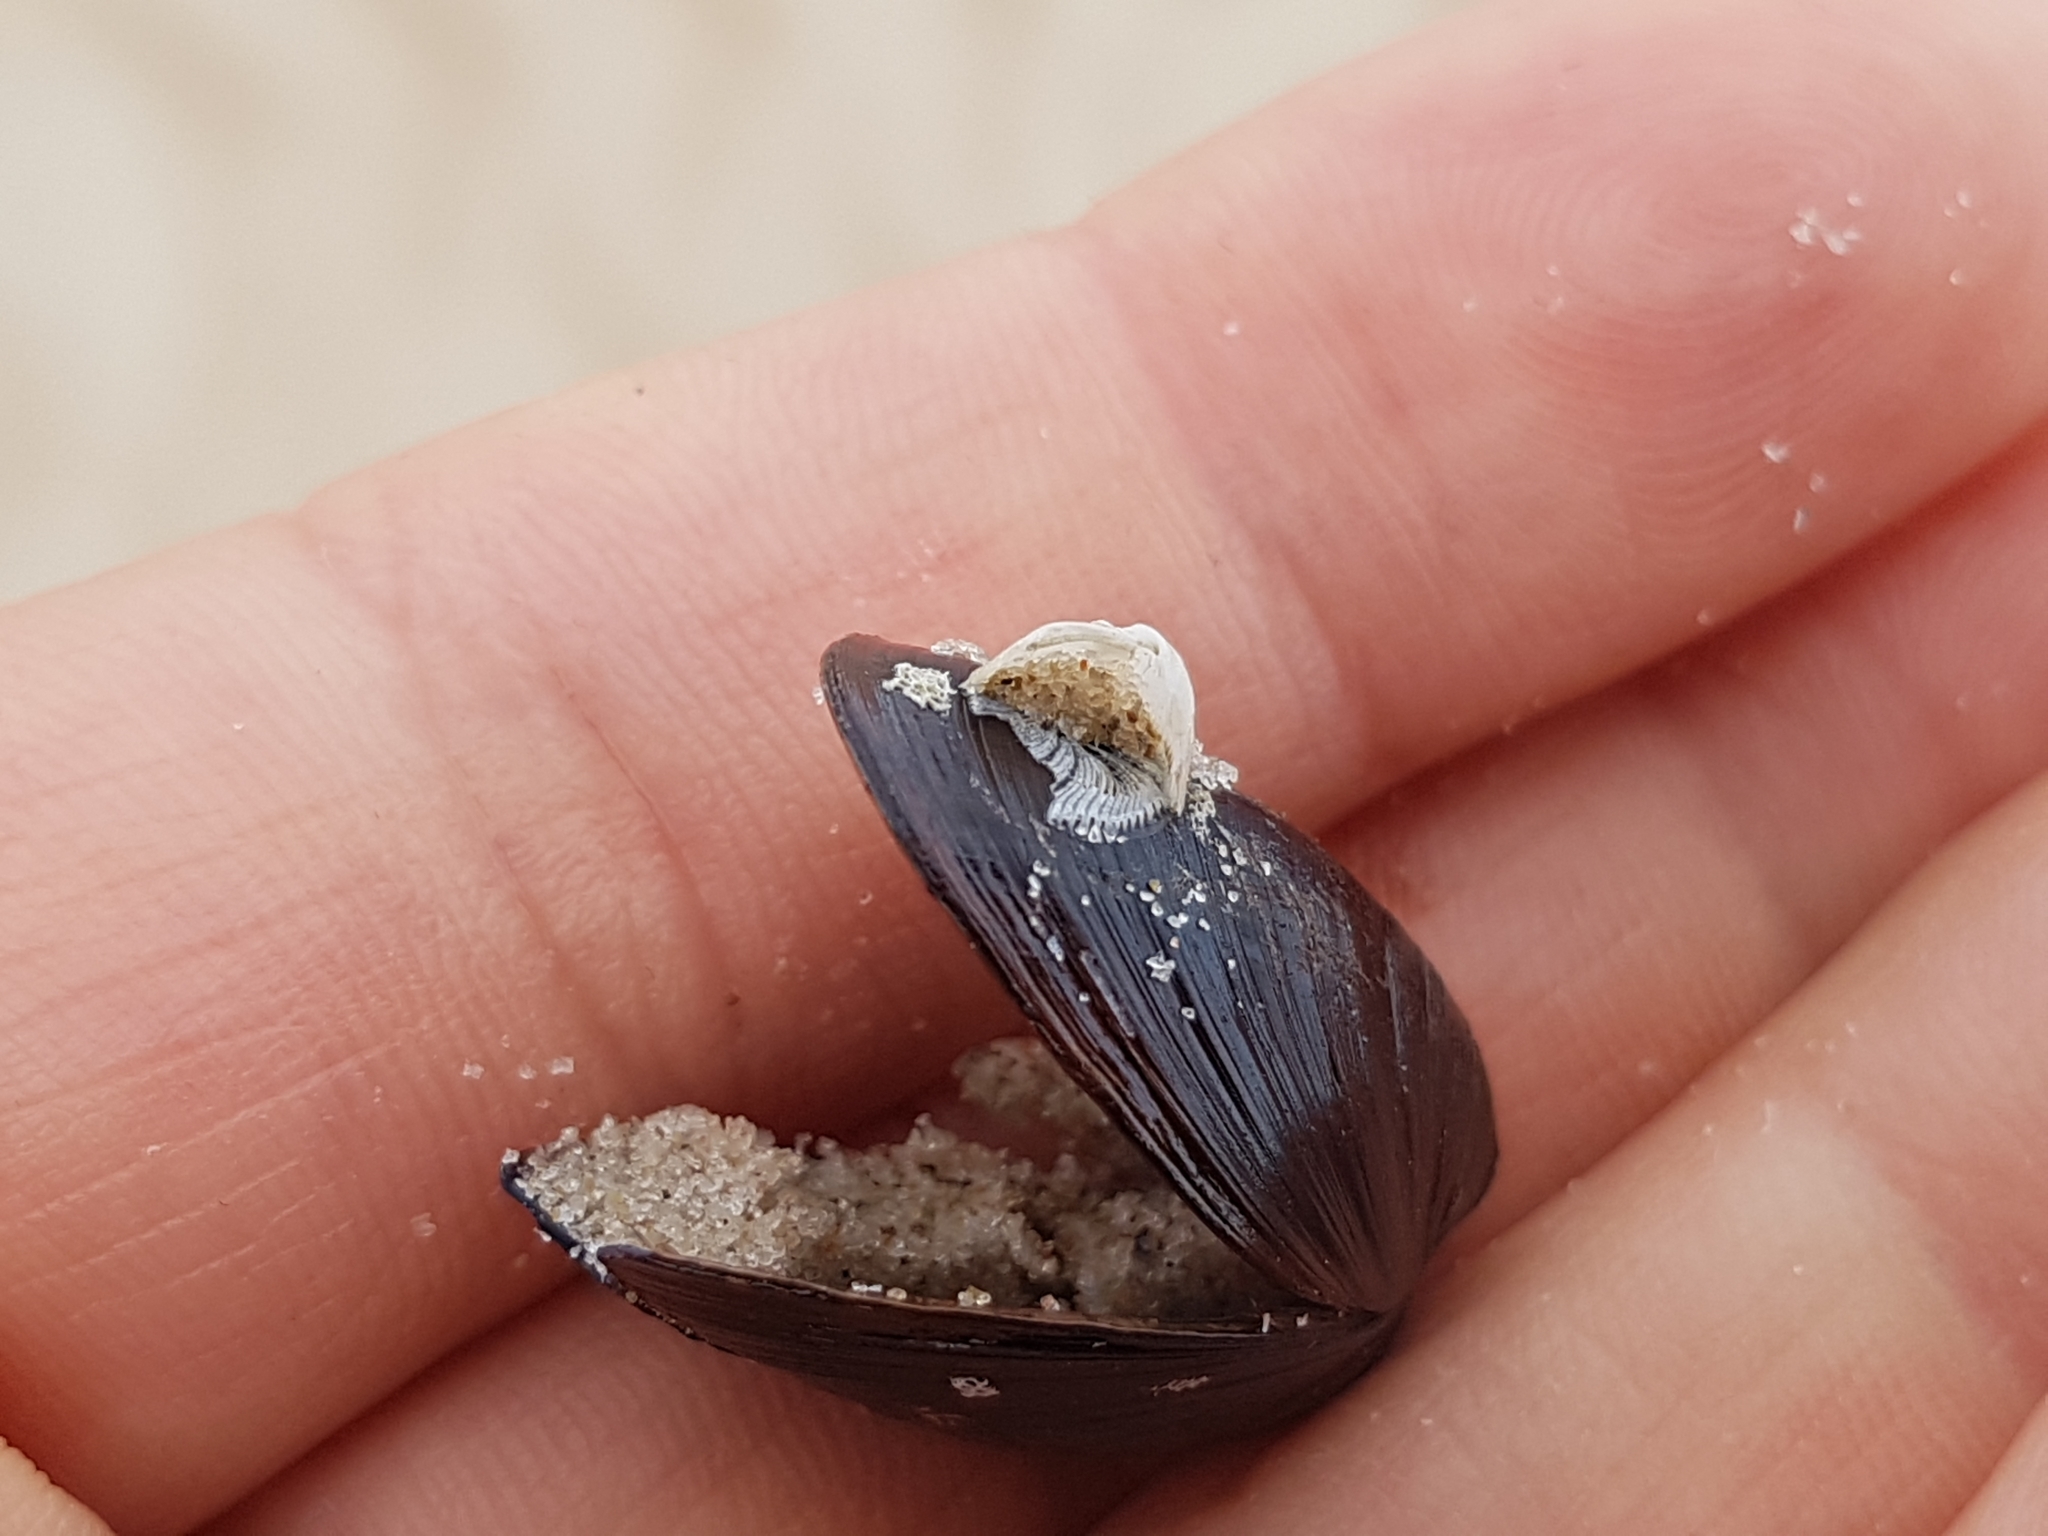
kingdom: Animalia
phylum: Arthropoda
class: Maxillopoda
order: Sessilia
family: Balanidae
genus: Amphibalanus
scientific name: Amphibalanus improvisus
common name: Bay barnacle
